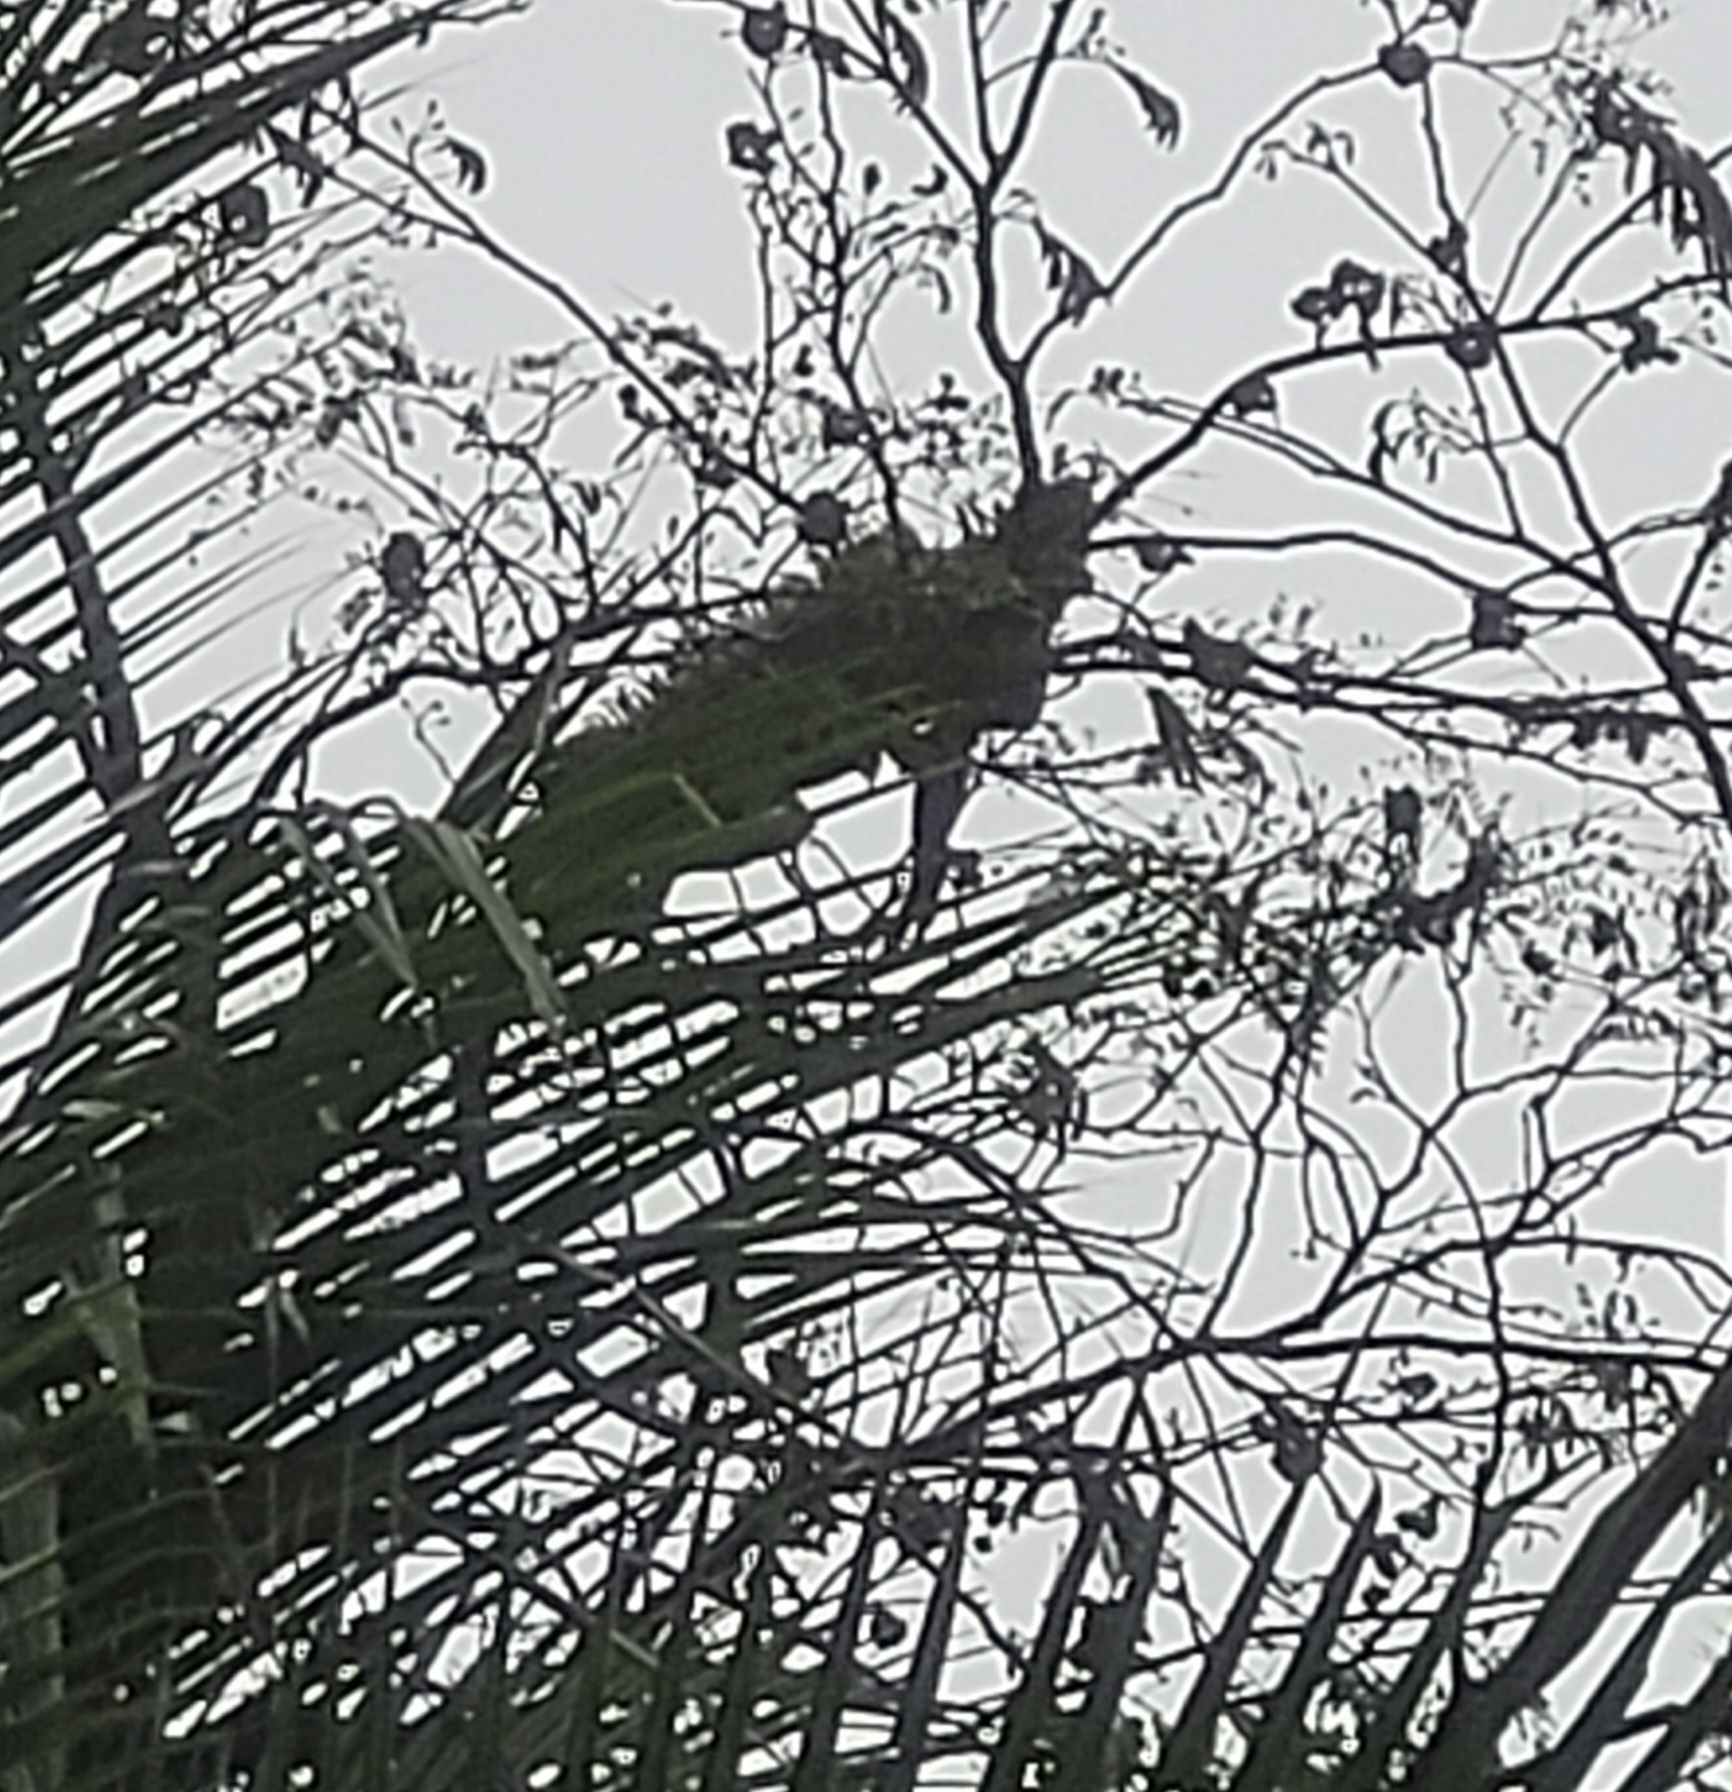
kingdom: Animalia
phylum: Chordata
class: Squamata
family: Iguanidae
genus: Iguana
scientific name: Iguana iguana
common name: Green iguana
